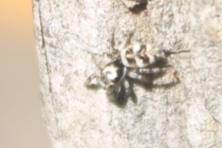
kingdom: Animalia
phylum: Arthropoda
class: Arachnida
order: Araneae
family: Salticidae
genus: Salticus
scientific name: Salticus scenicus
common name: Zebra jumper
